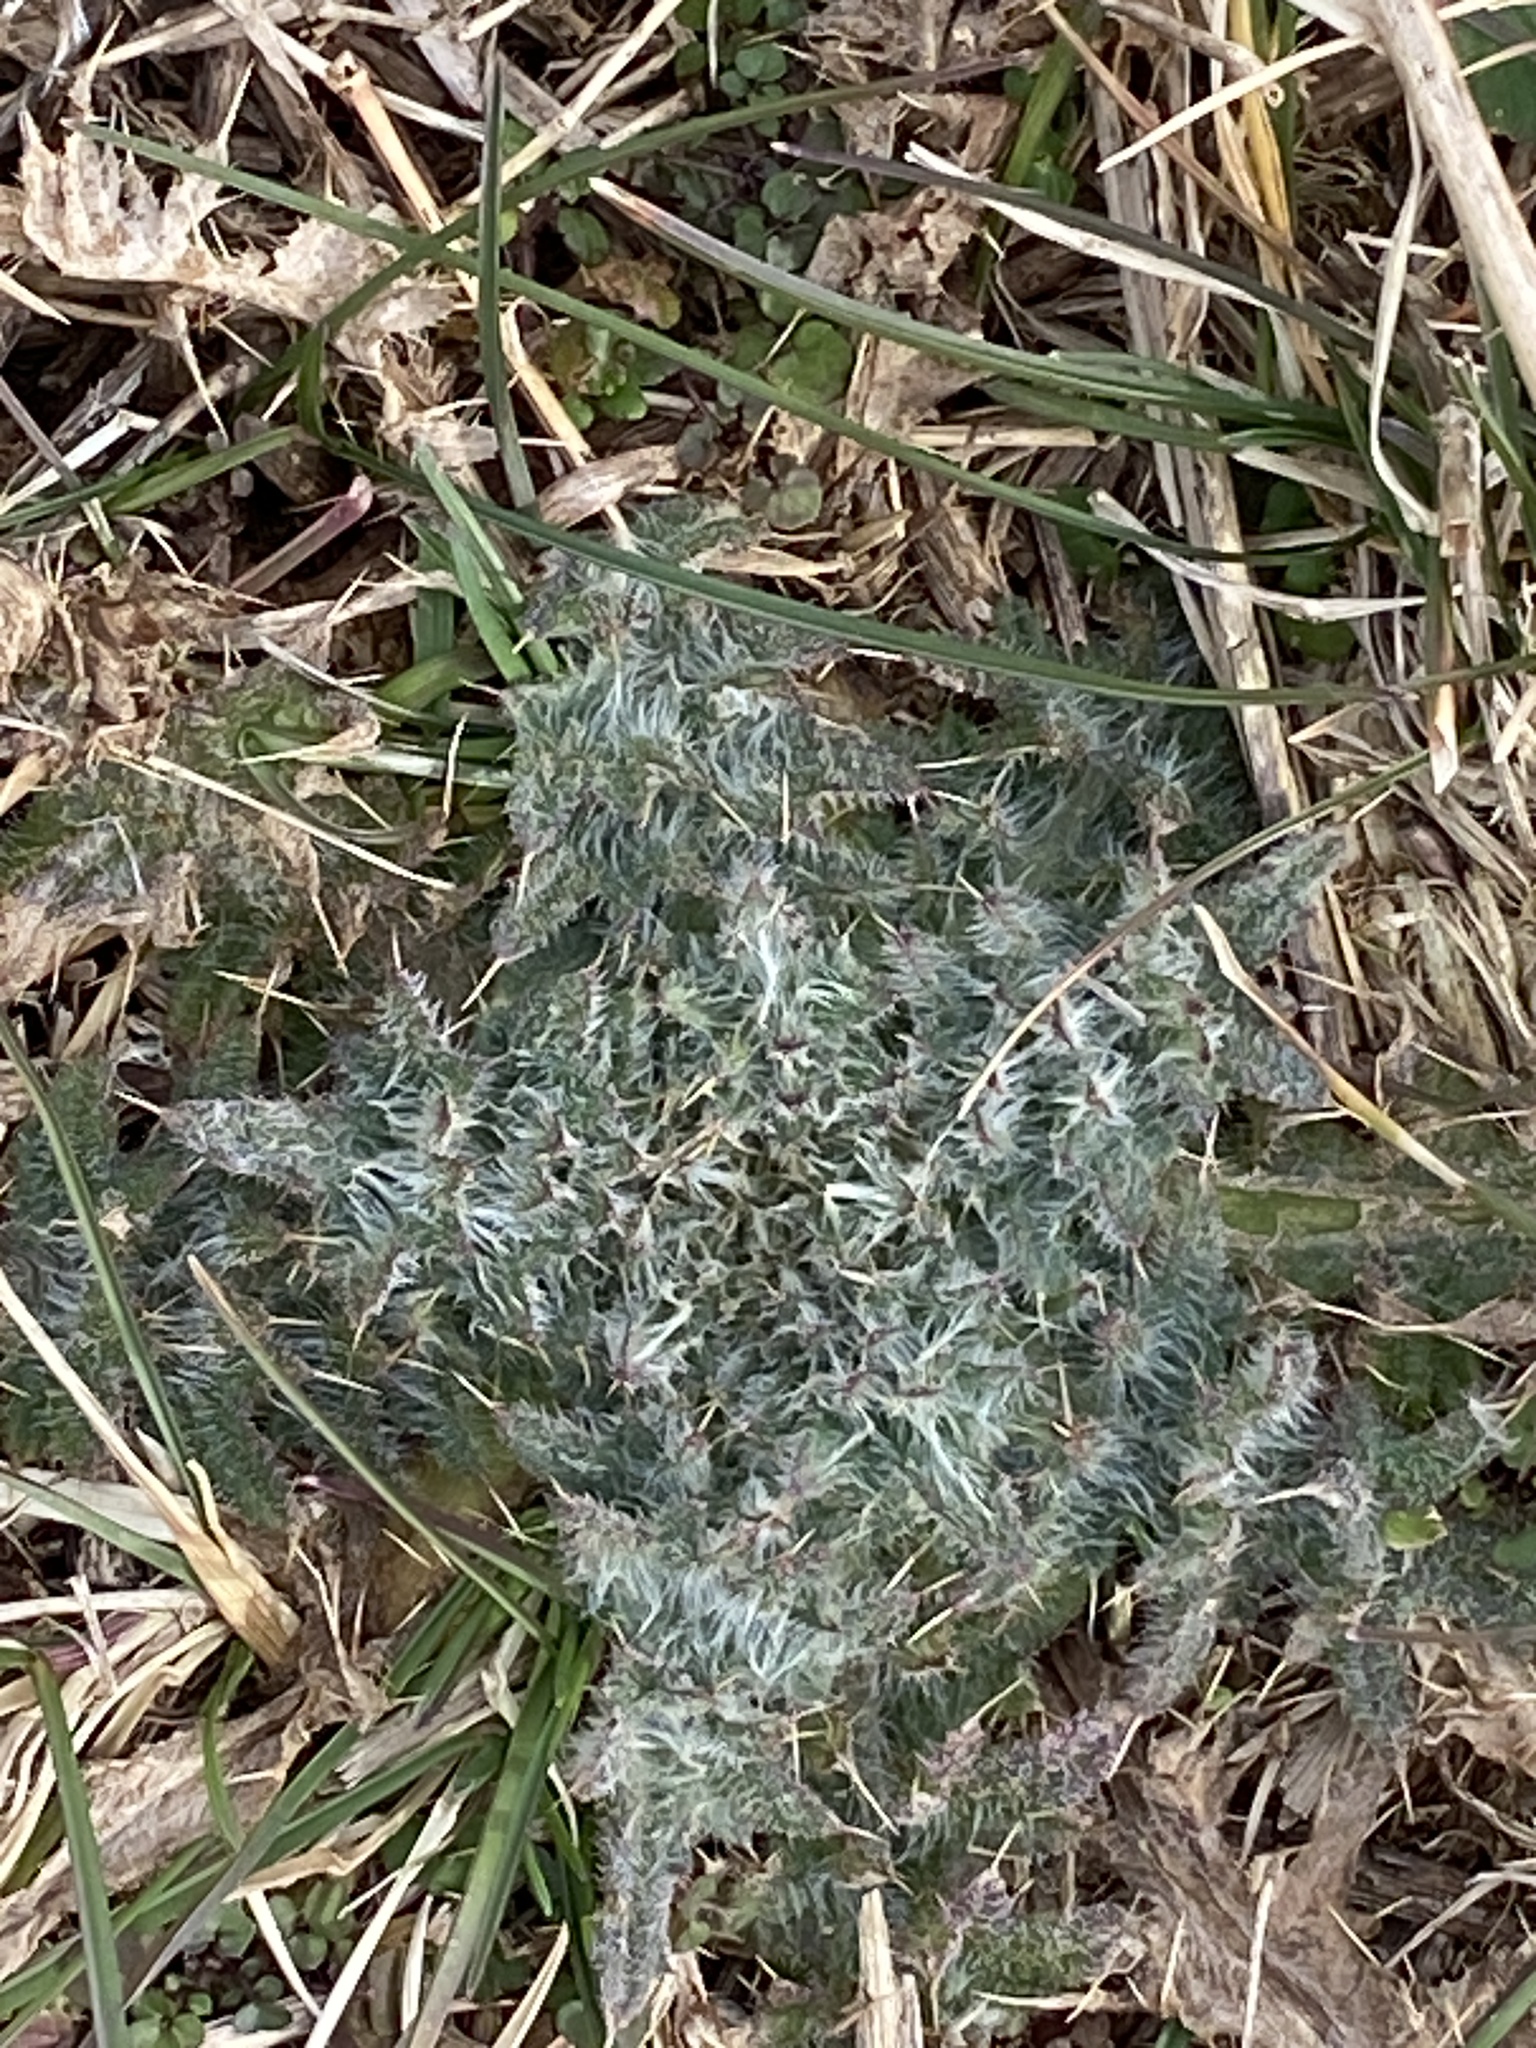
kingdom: Plantae
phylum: Tracheophyta
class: Magnoliopsida
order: Asterales
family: Asteraceae
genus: Cirsium
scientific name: Cirsium vulgare
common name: Bull thistle
